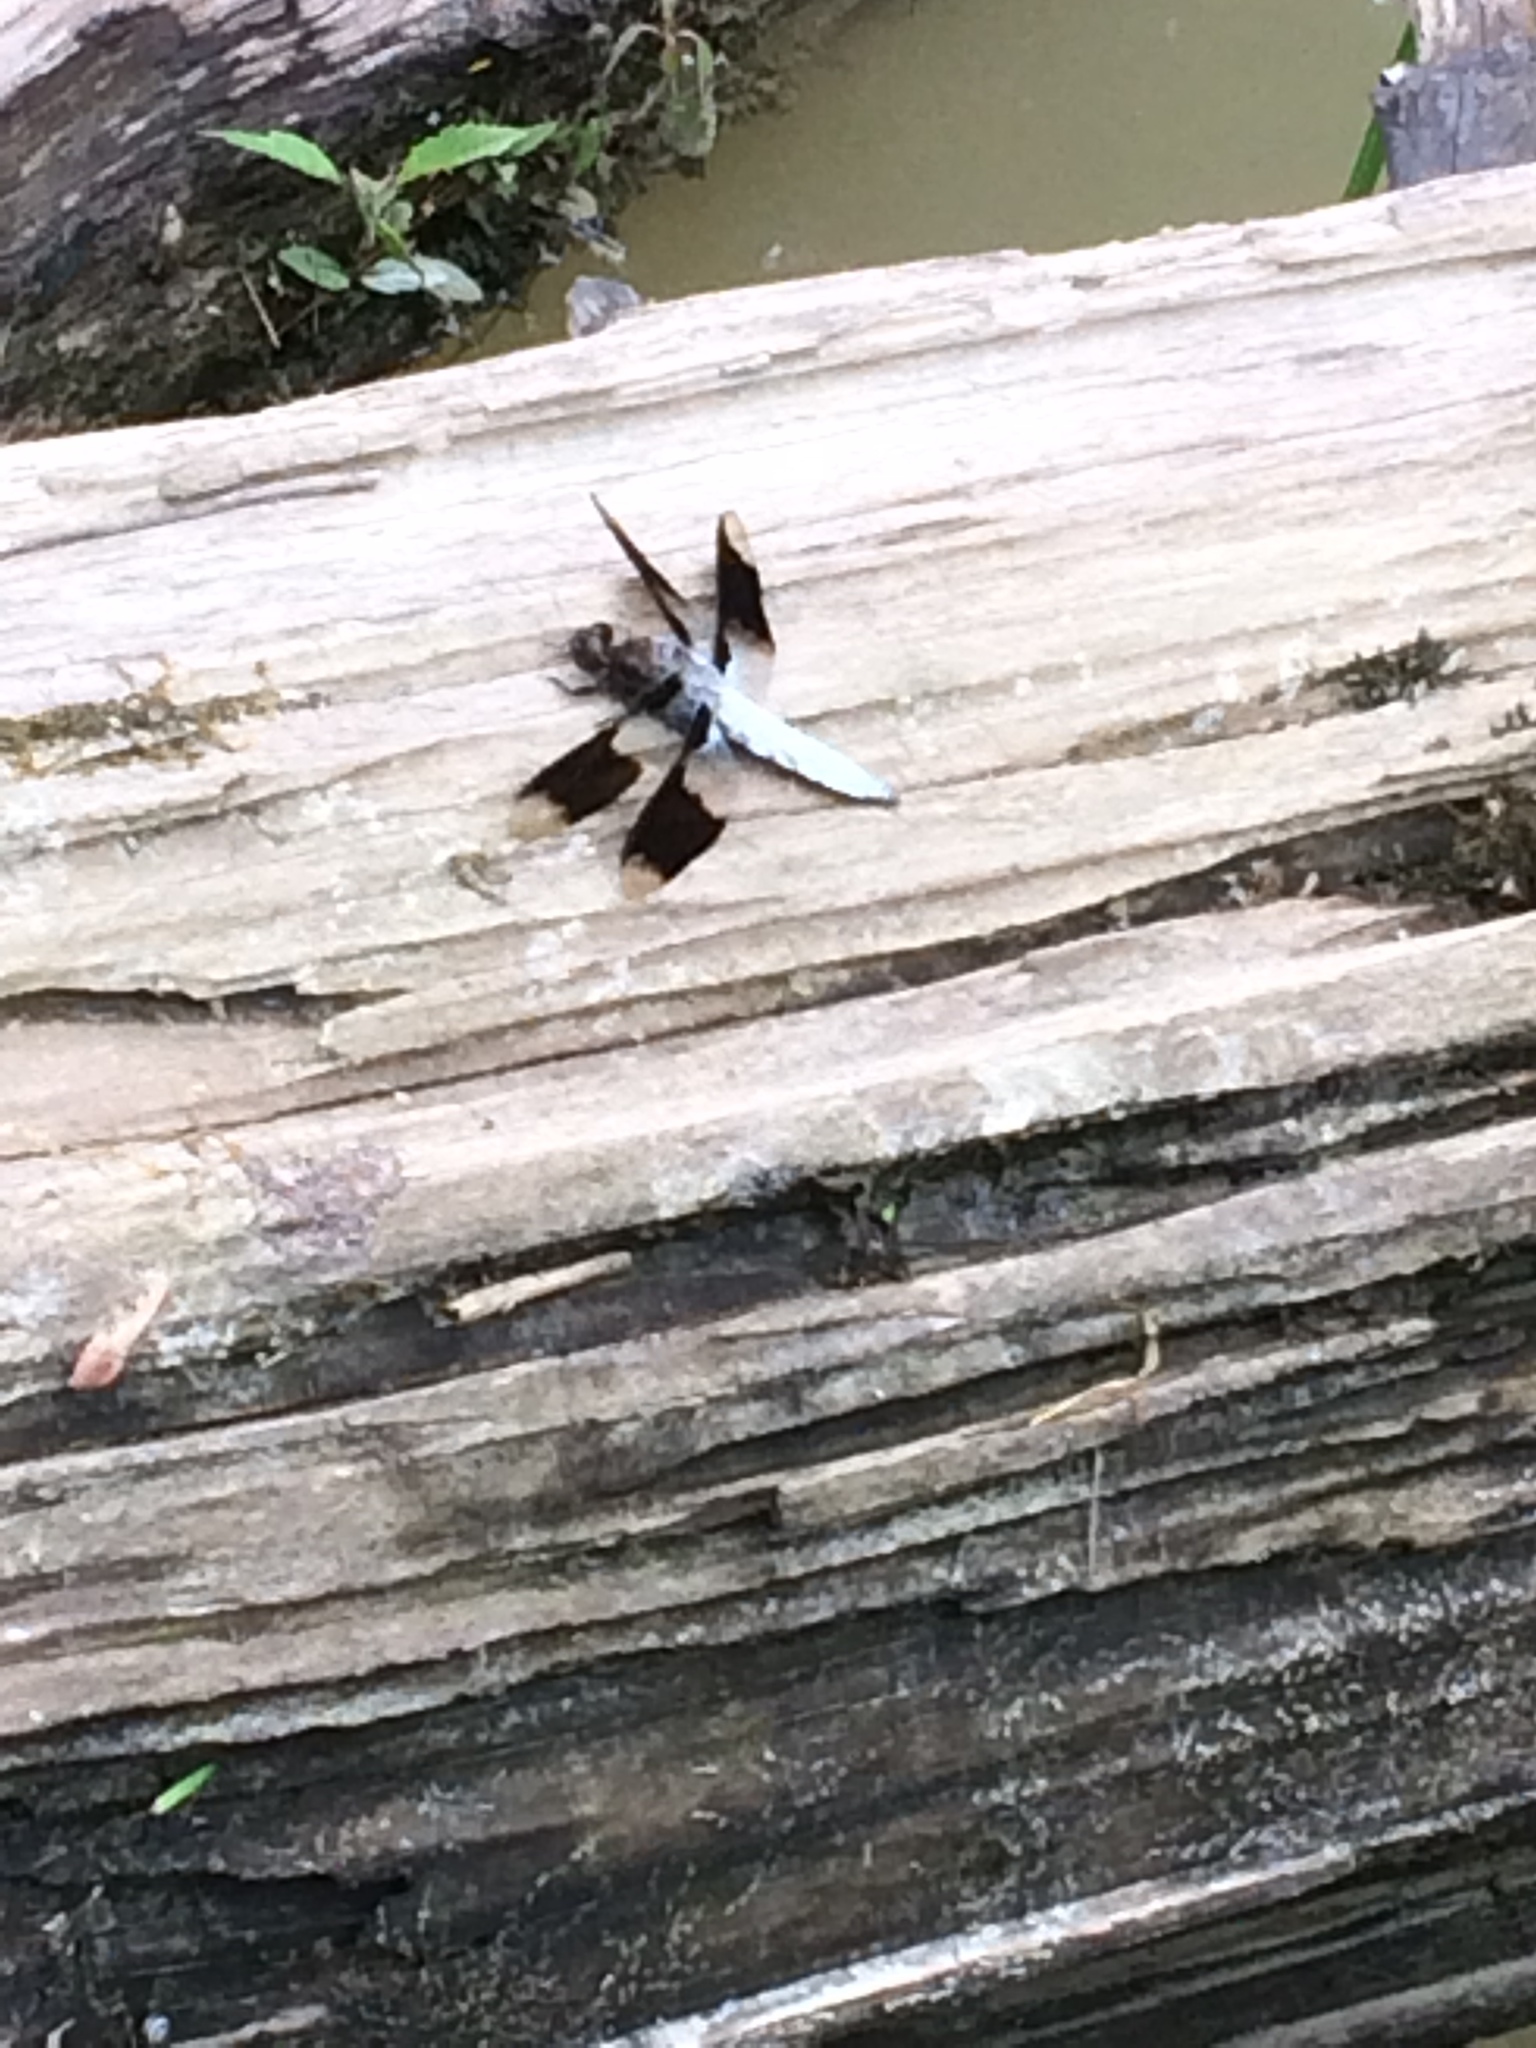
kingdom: Animalia
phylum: Arthropoda
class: Insecta
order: Odonata
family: Libellulidae
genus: Plathemis
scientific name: Plathemis lydia
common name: Common whitetail
